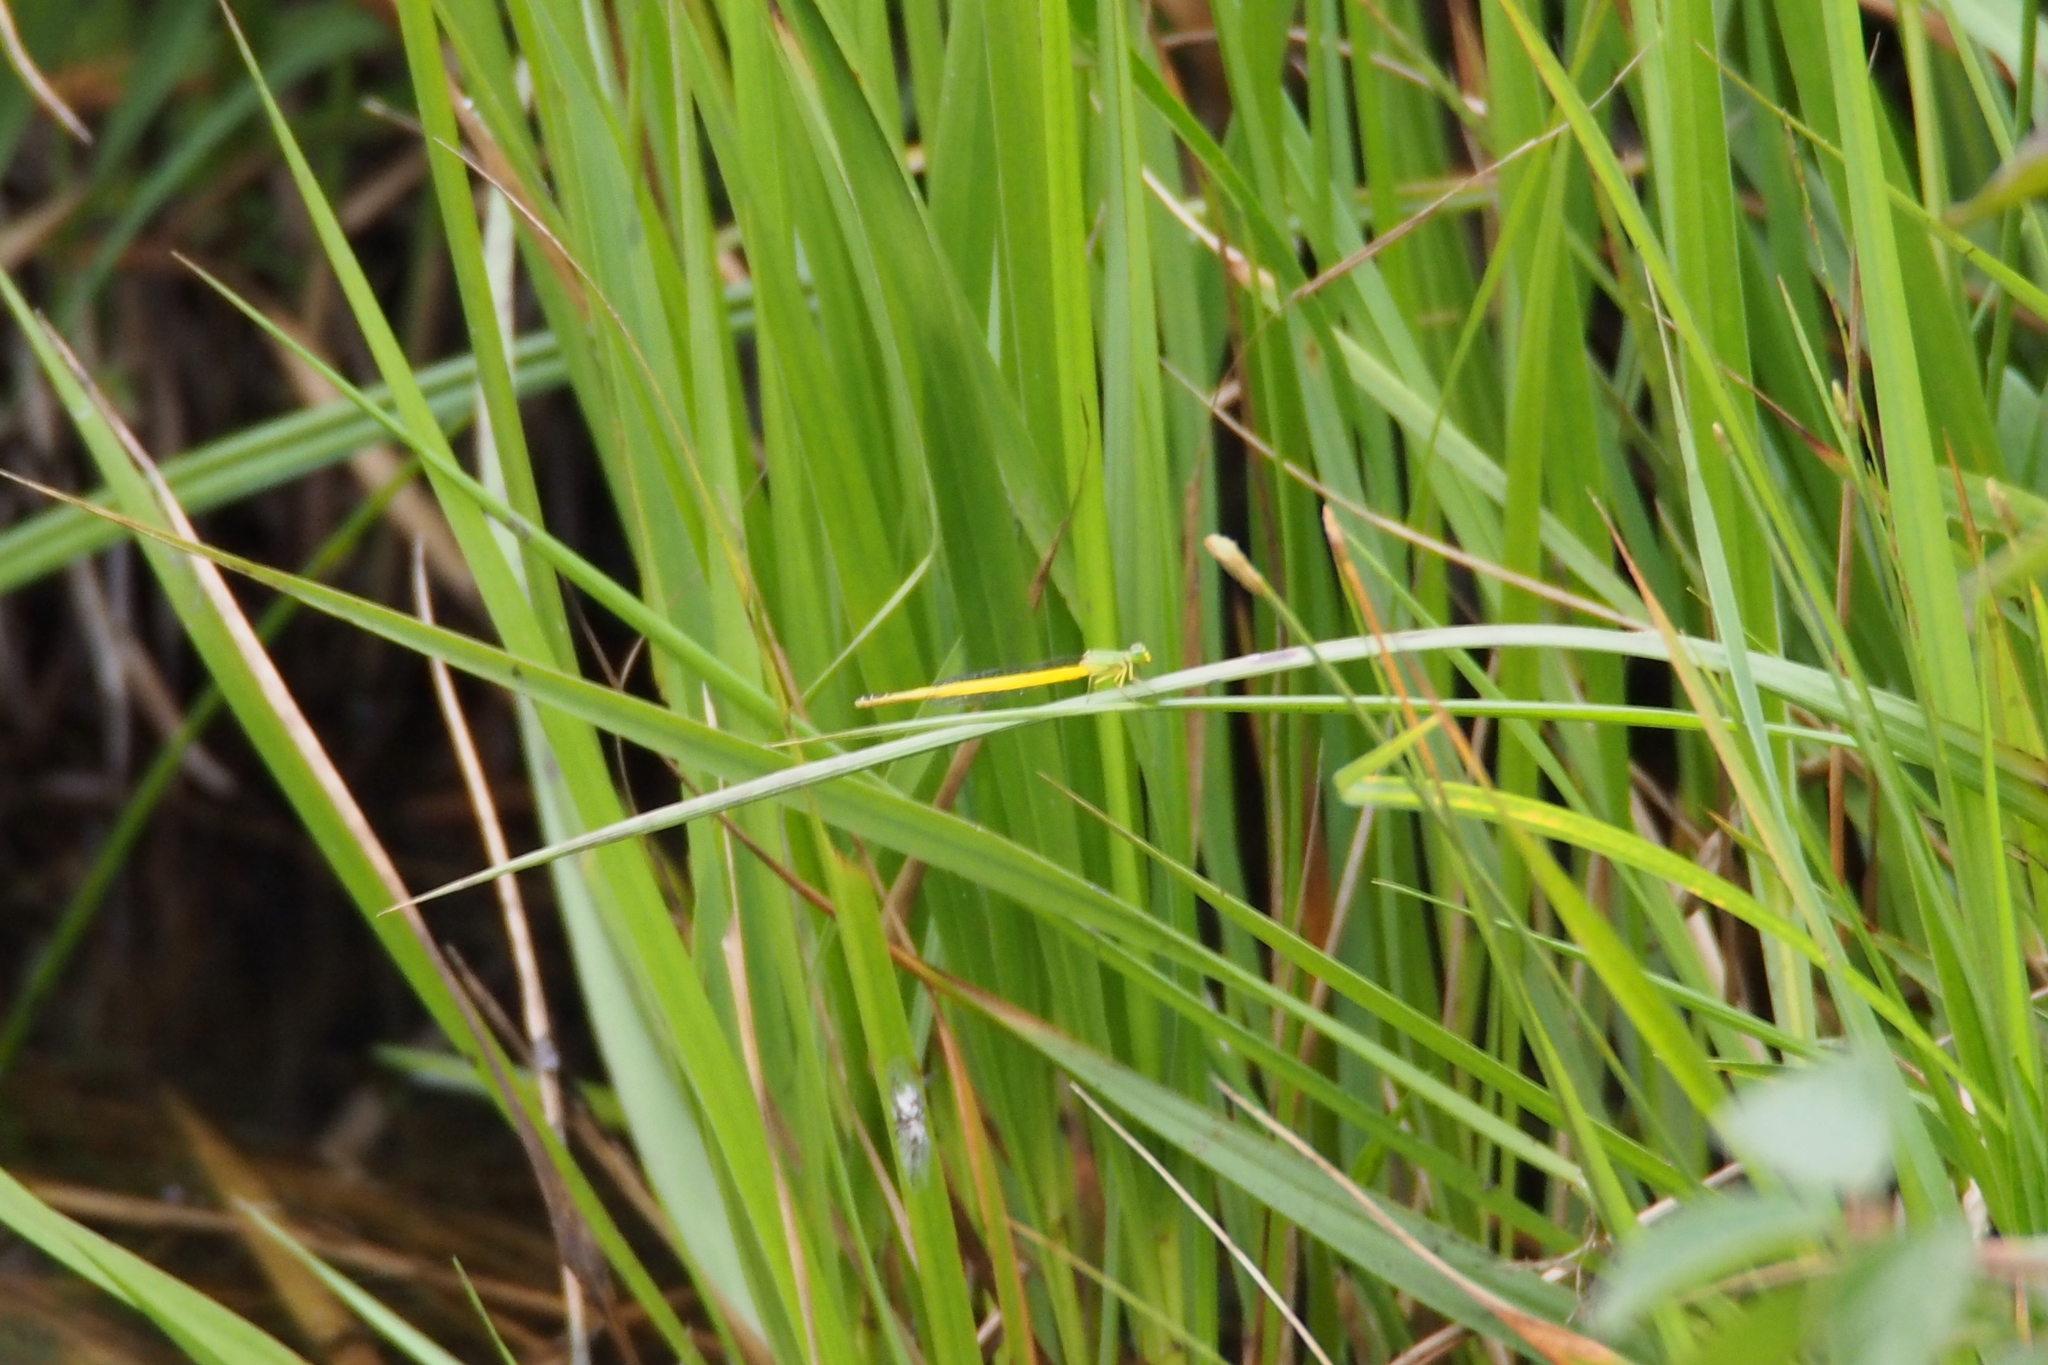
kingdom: Animalia
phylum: Arthropoda
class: Insecta
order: Odonata
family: Coenagrionidae
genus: Ceriagrion
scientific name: Ceriagrion melanurum
